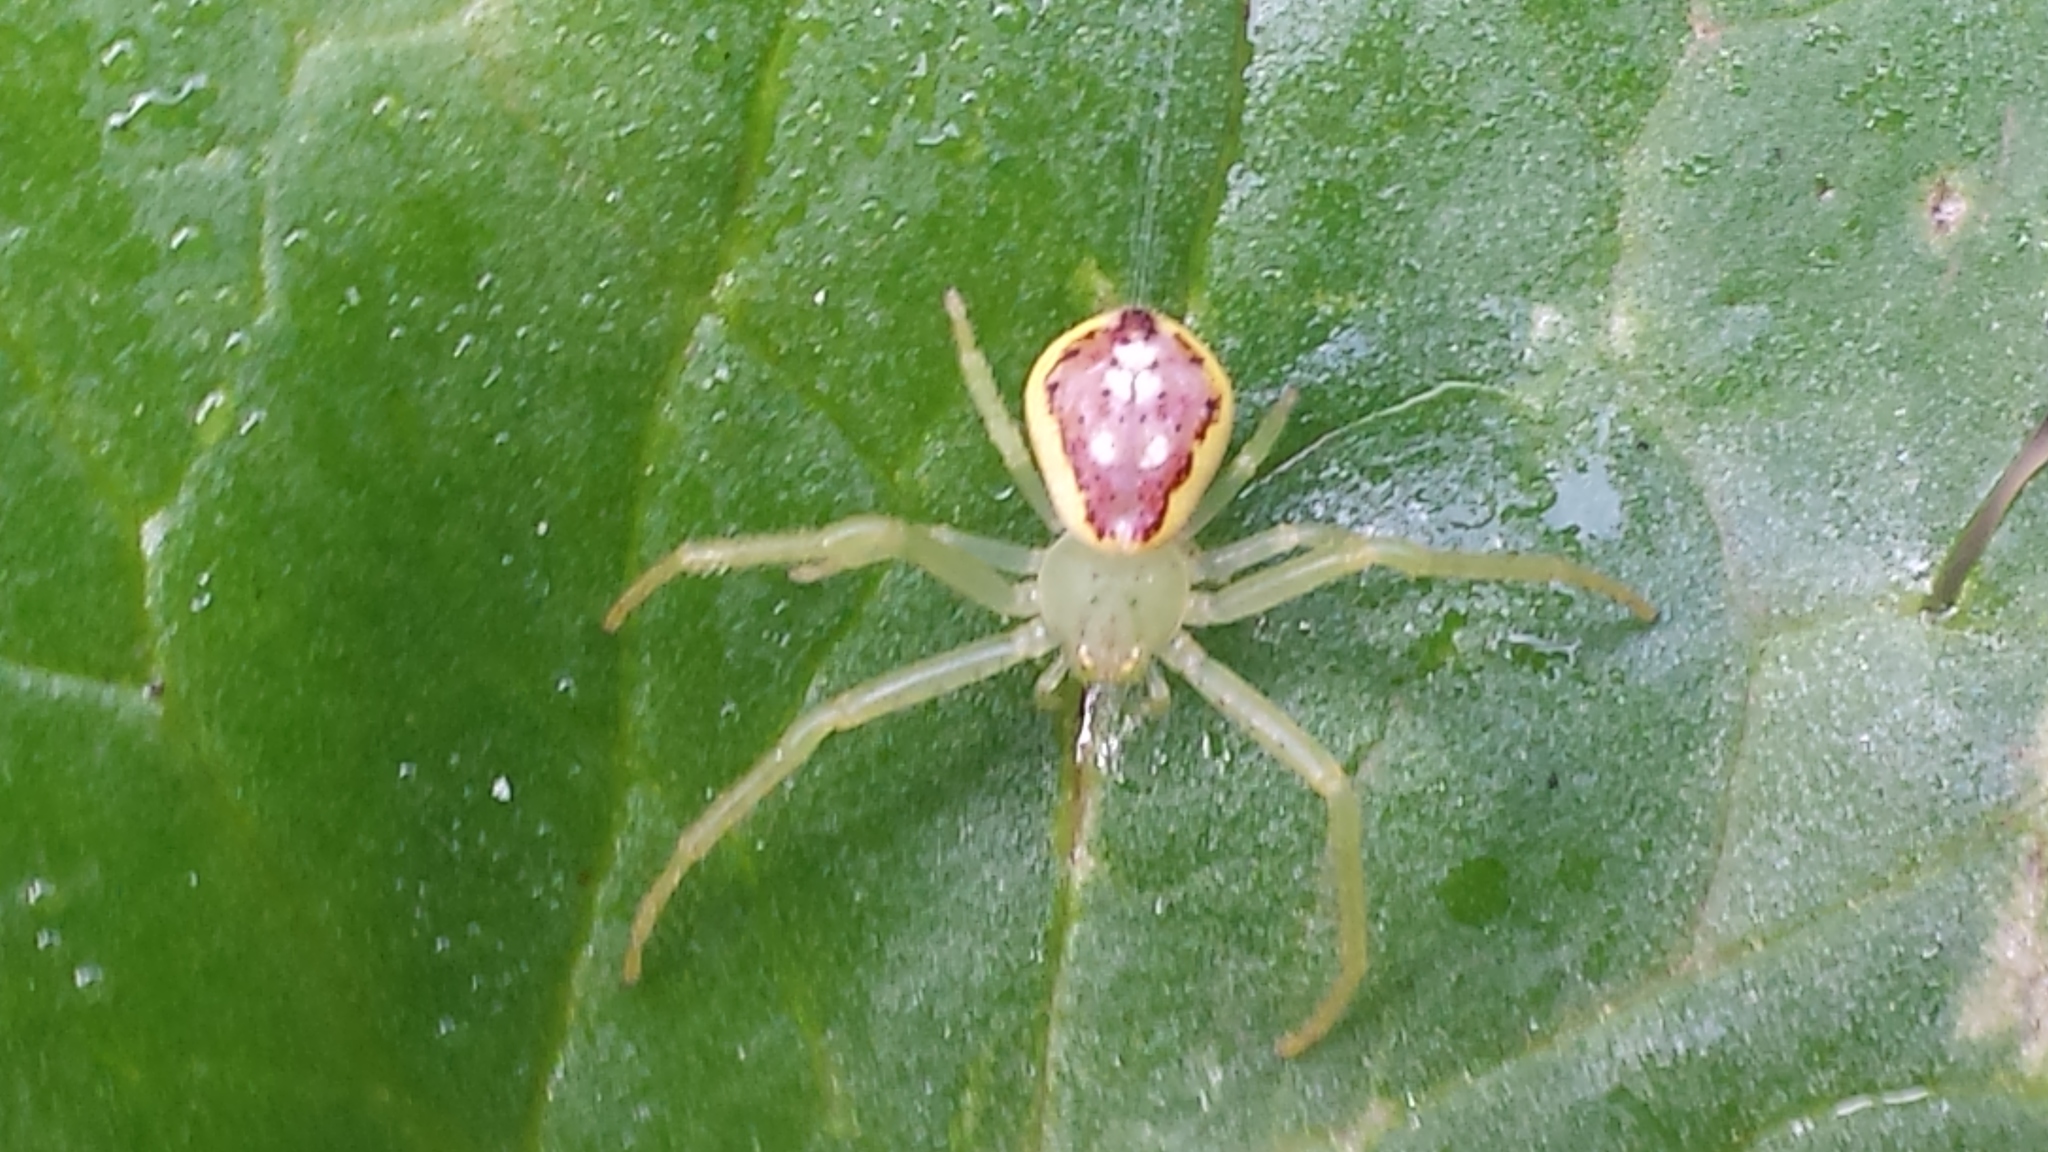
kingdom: Animalia
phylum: Arthropoda
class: Arachnida
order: Araneae
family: Thomisidae
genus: Diaea
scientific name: Diaea livens
